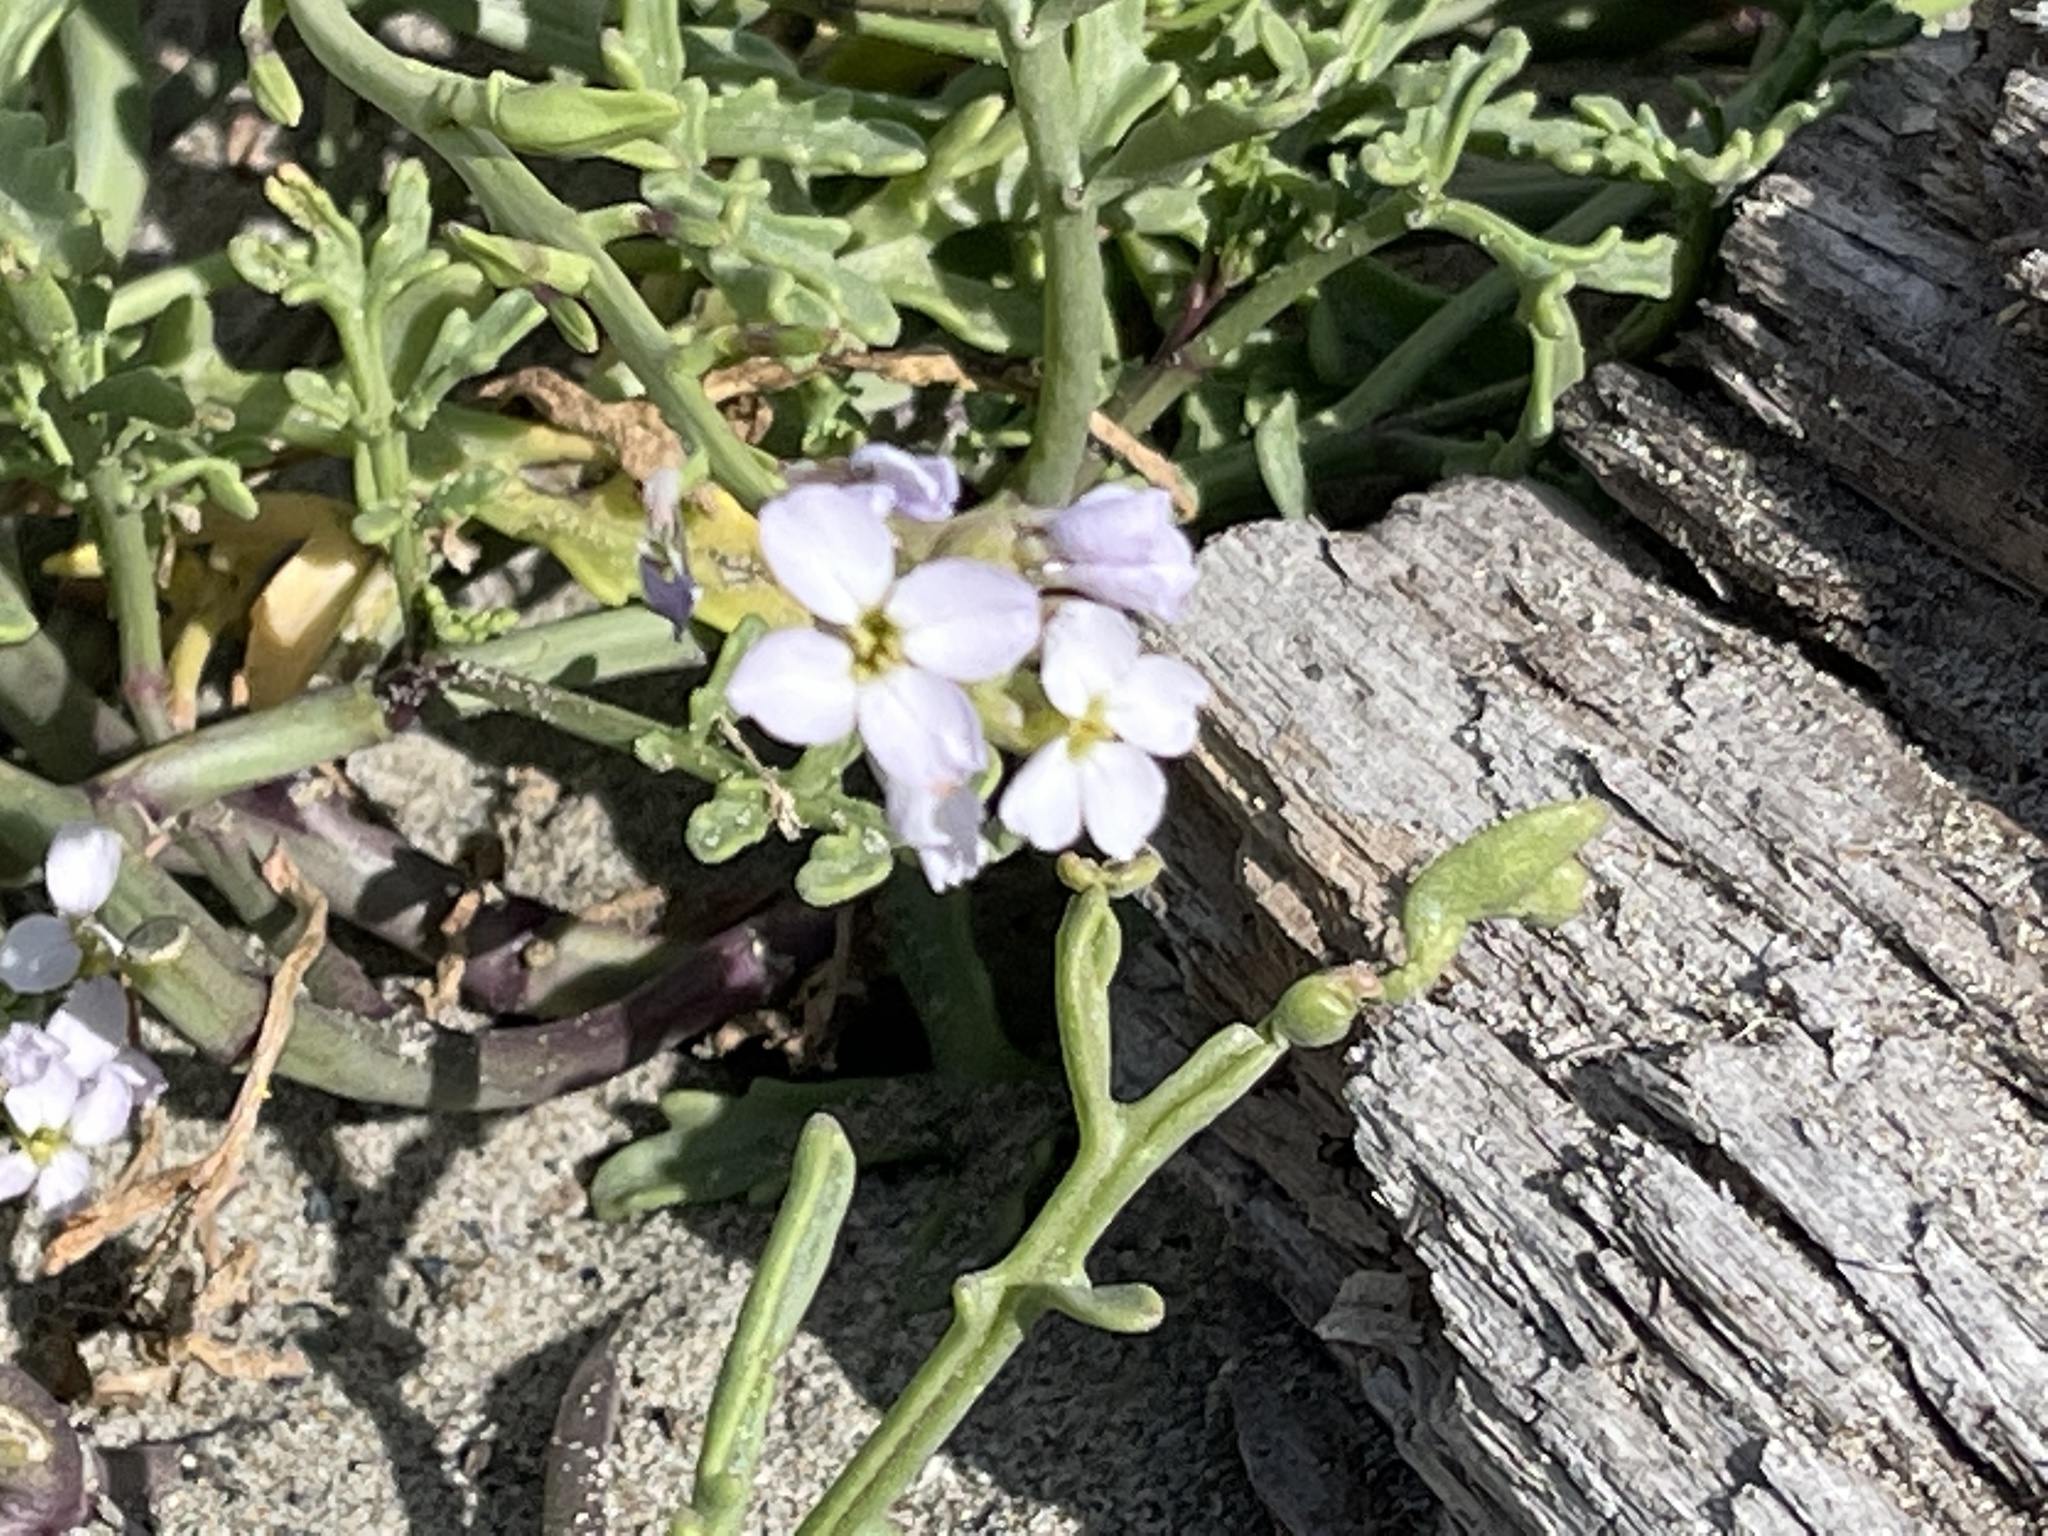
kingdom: Plantae
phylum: Tracheophyta
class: Magnoliopsida
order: Brassicales
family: Brassicaceae
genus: Cakile
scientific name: Cakile maritima
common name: Sea rocket
